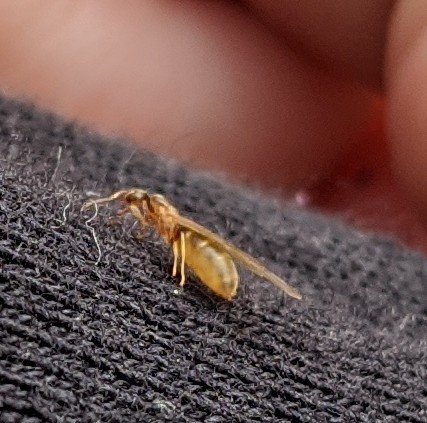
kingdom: Animalia
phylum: Arthropoda
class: Insecta
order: Hymenoptera
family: Formicidae
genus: Brachymyrmex
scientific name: Brachymyrmex depilis
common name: Hairless rover ant
